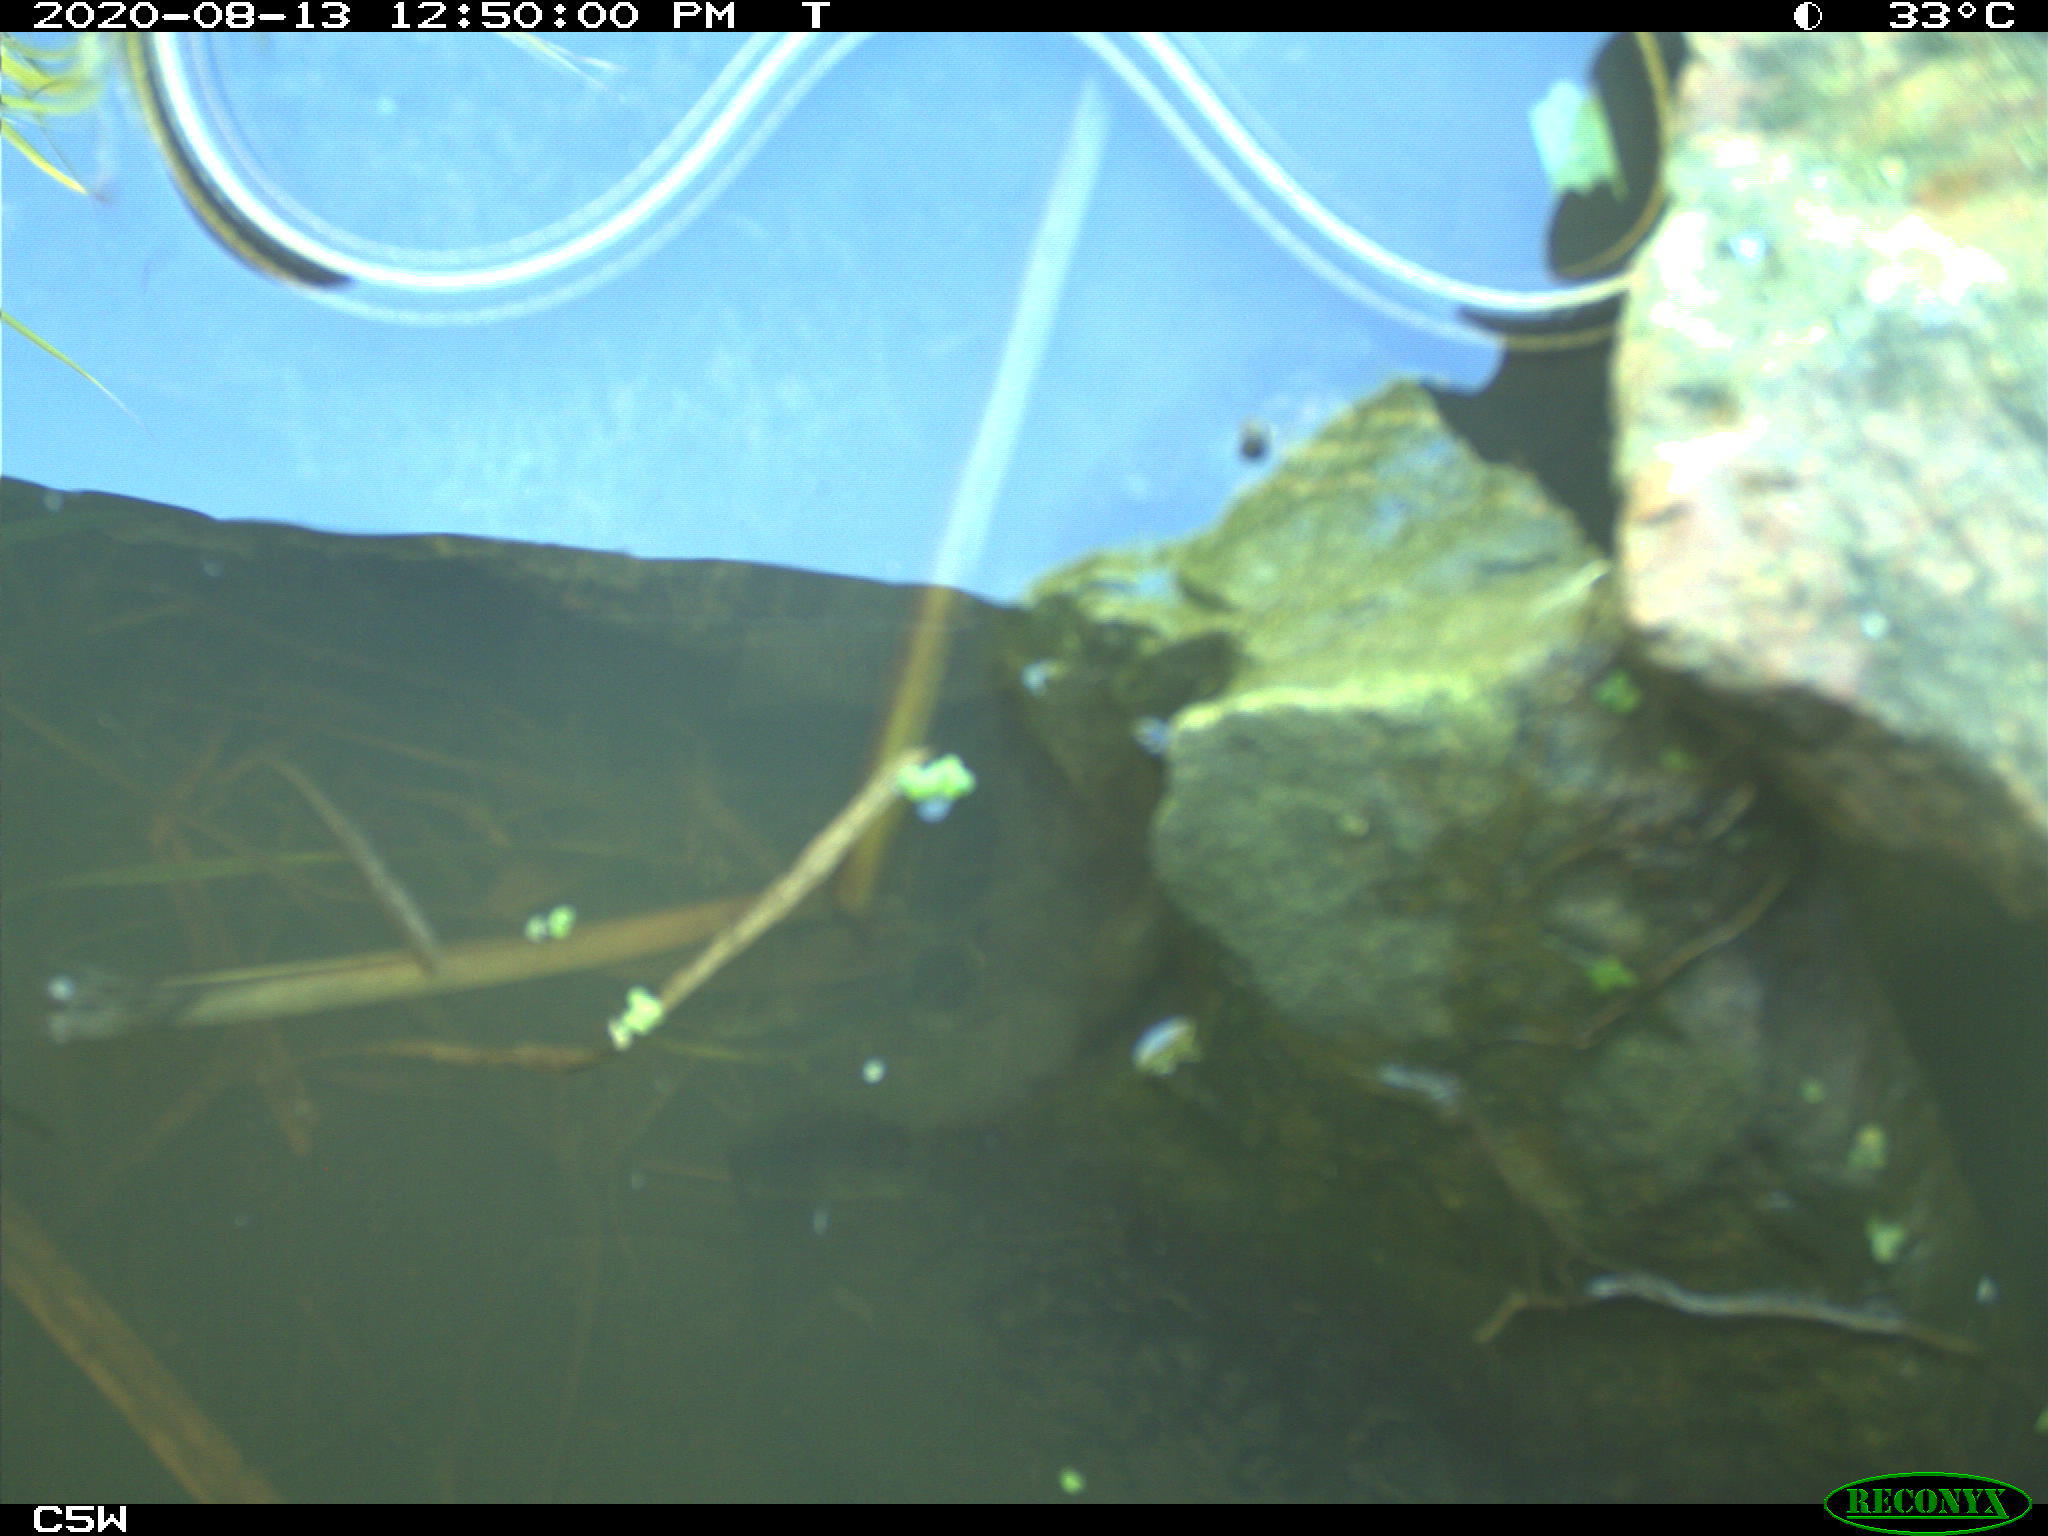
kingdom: Animalia
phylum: Chordata
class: Squamata
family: Colubridae
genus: Thamnophis
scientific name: Thamnophis saurita
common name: Eastern ribbonsnake
